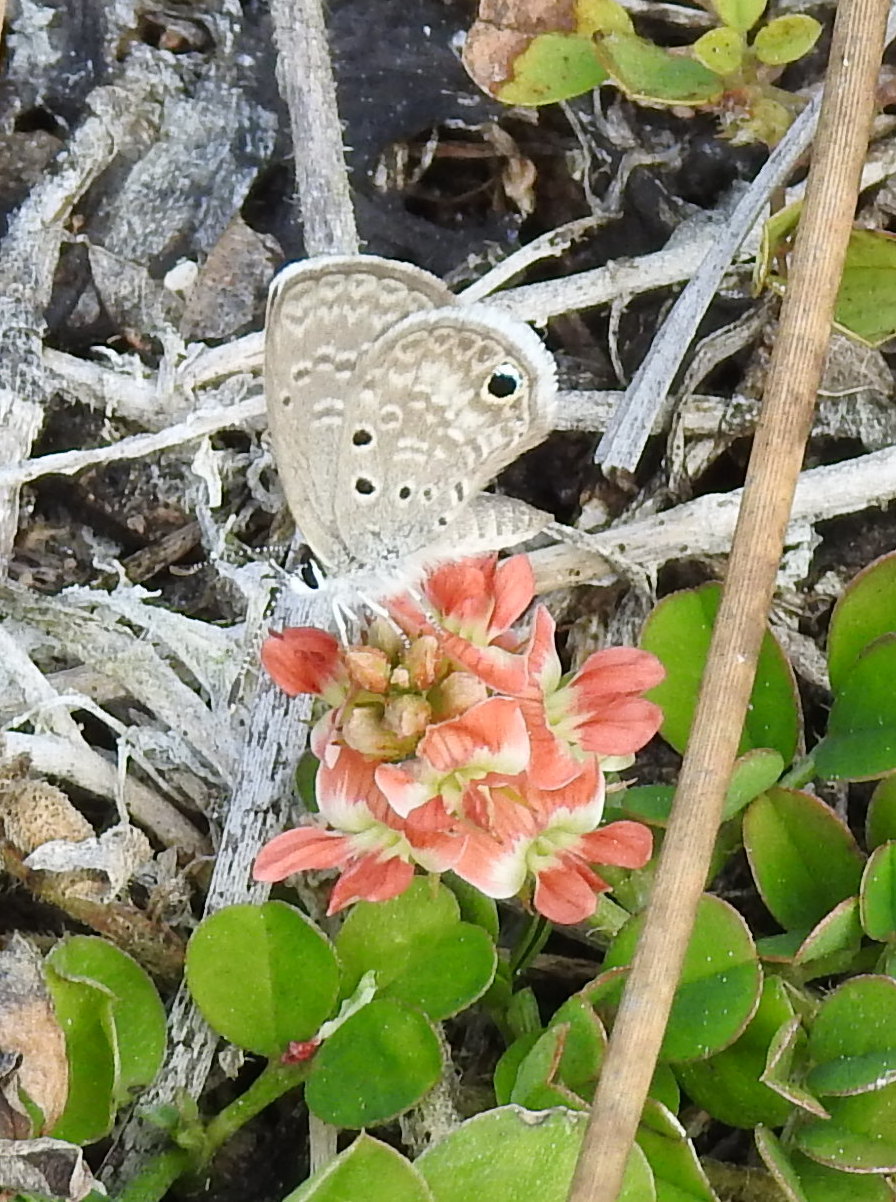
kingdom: Animalia
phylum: Arthropoda
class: Insecta
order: Lepidoptera
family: Lycaenidae
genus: Hemiargus
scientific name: Hemiargus ceraunus
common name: Ceraunus blue
